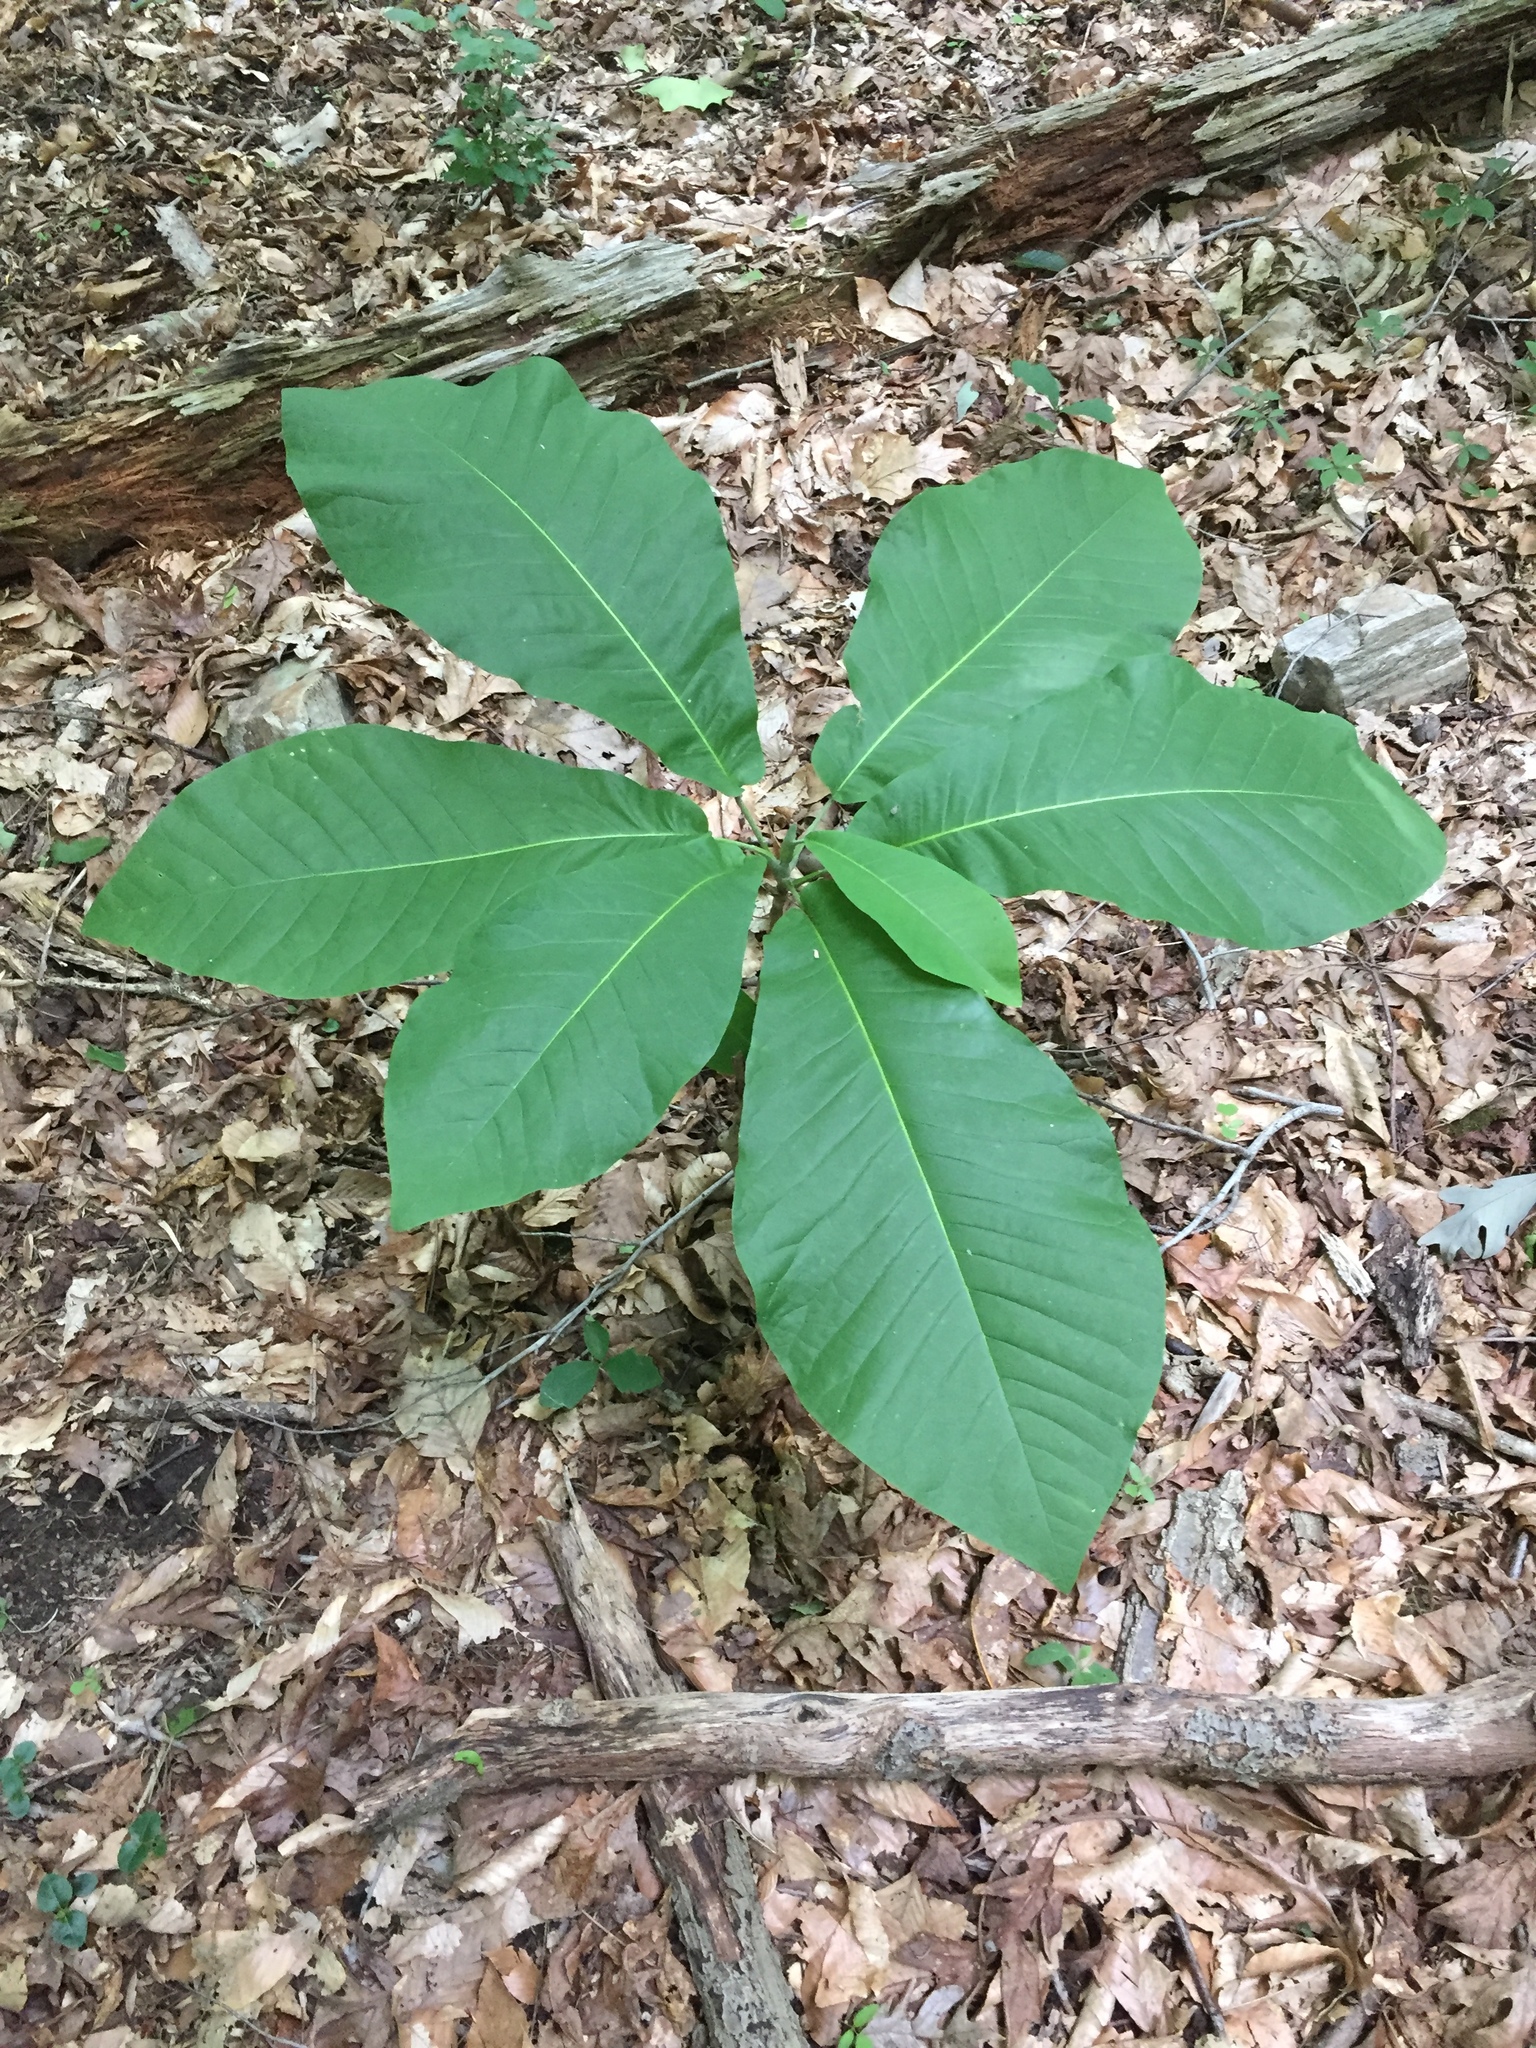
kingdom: Plantae
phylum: Tracheophyta
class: Magnoliopsida
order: Magnoliales
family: Magnoliaceae
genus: Magnolia
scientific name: Magnolia macrophylla
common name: Big-leaf magnolia
